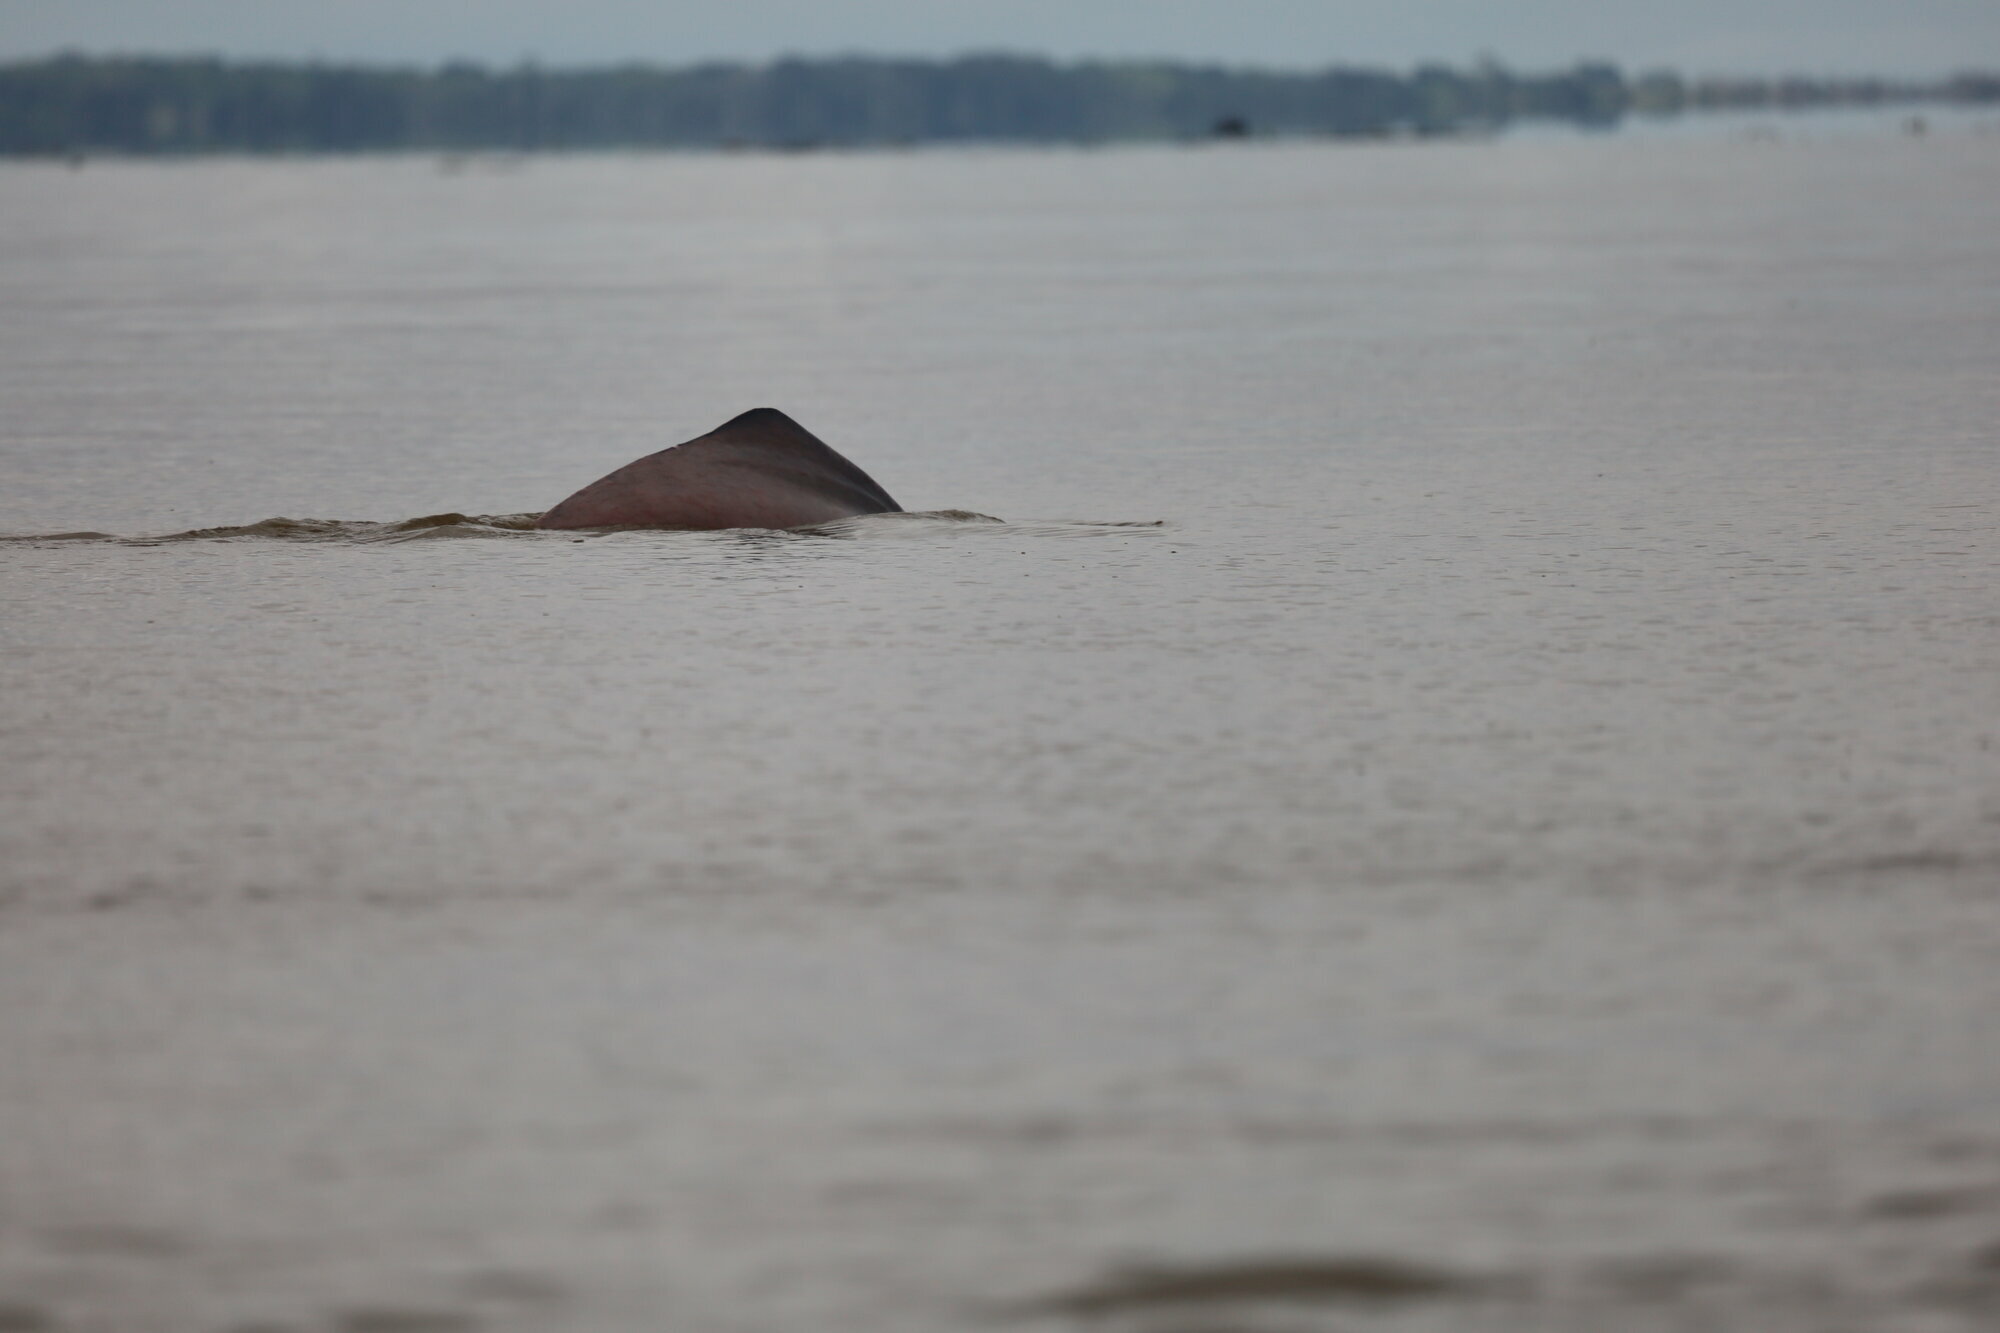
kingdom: Animalia
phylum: Chordata
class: Mammalia
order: Cetacea
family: Iniidae
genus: Inia
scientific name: Inia geoffrensis
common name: Amazon river dolphin
